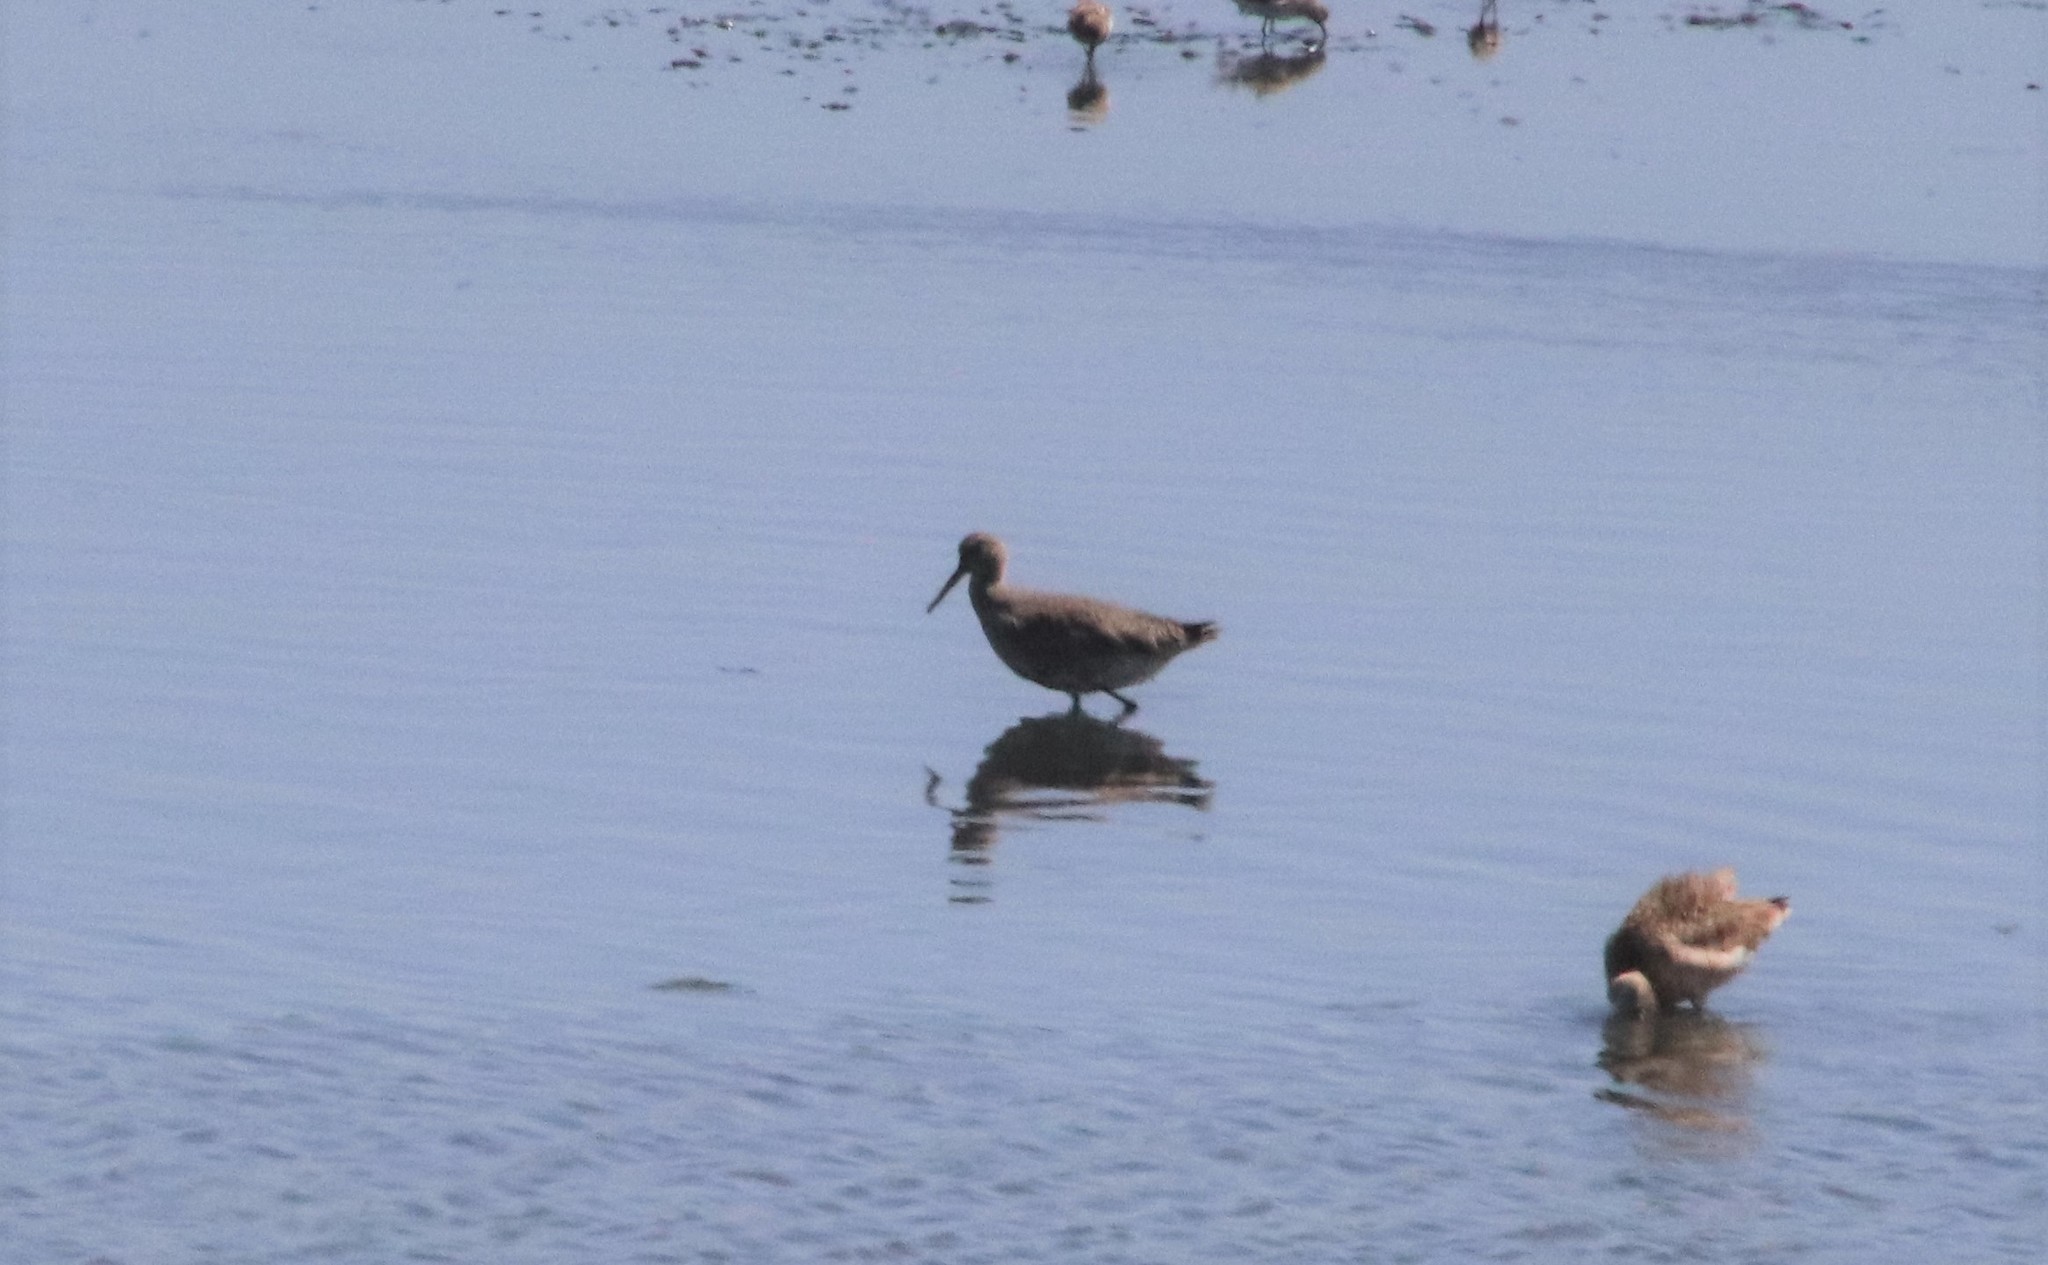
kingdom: Animalia
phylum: Chordata
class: Aves
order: Charadriiformes
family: Scolopacidae
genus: Tringa
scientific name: Tringa semipalmata
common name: Willet
